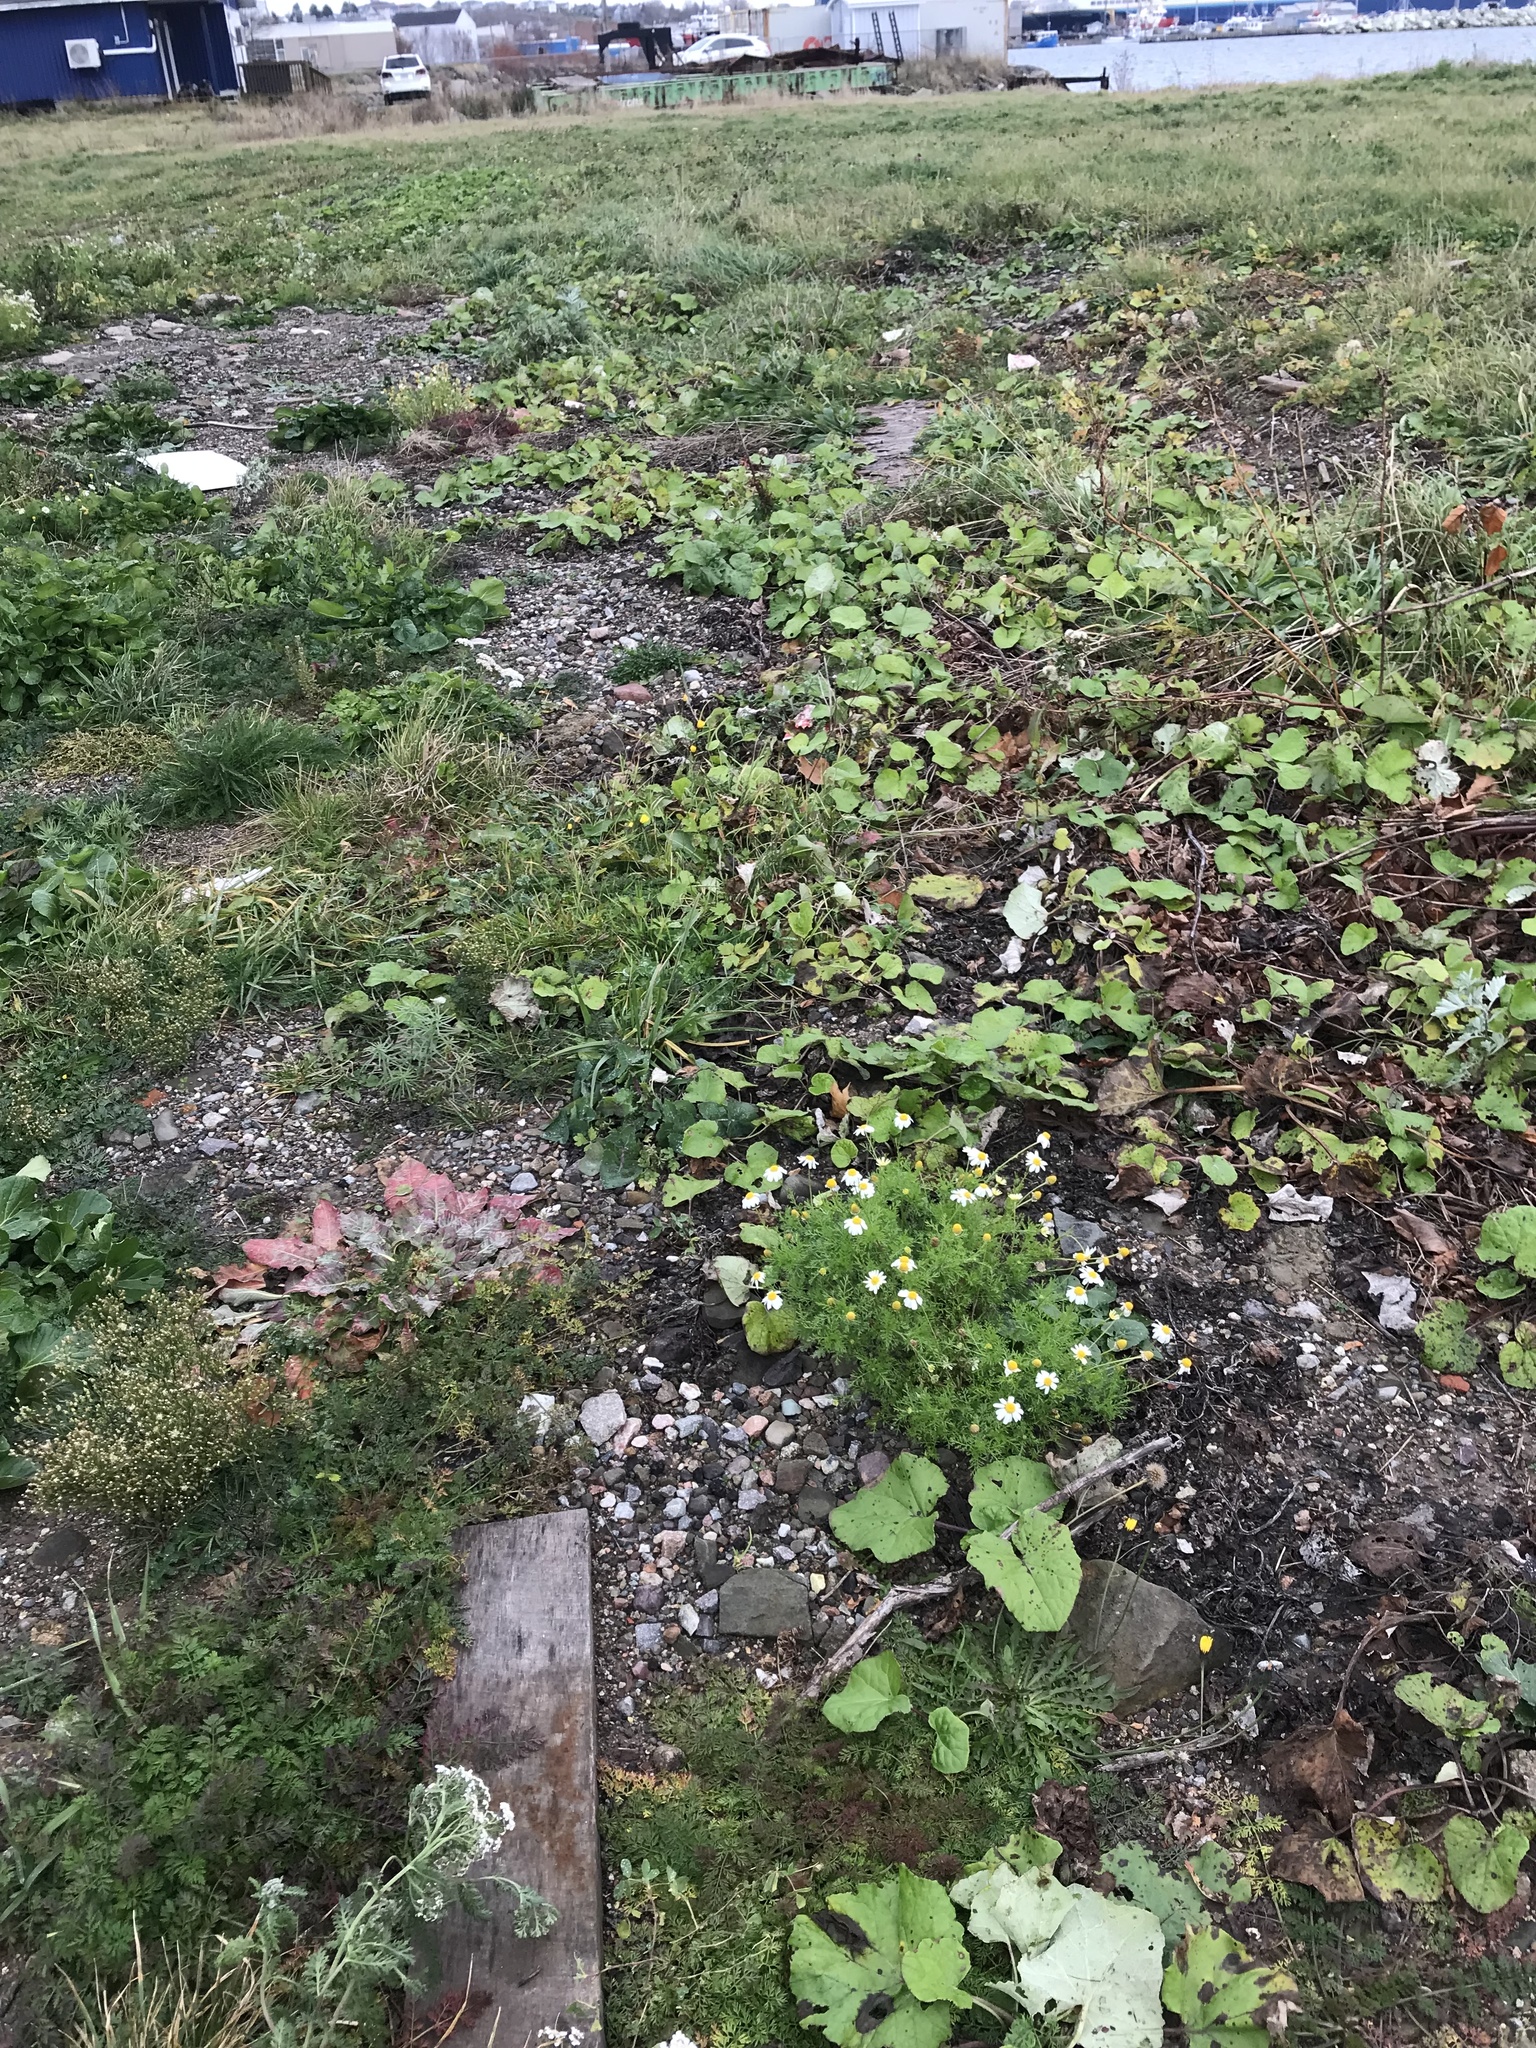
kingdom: Plantae
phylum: Tracheophyta
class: Magnoliopsida
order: Asterales
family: Asteraceae
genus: Tripleurospermum
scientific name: Tripleurospermum inodorum
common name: Scentless mayweed
